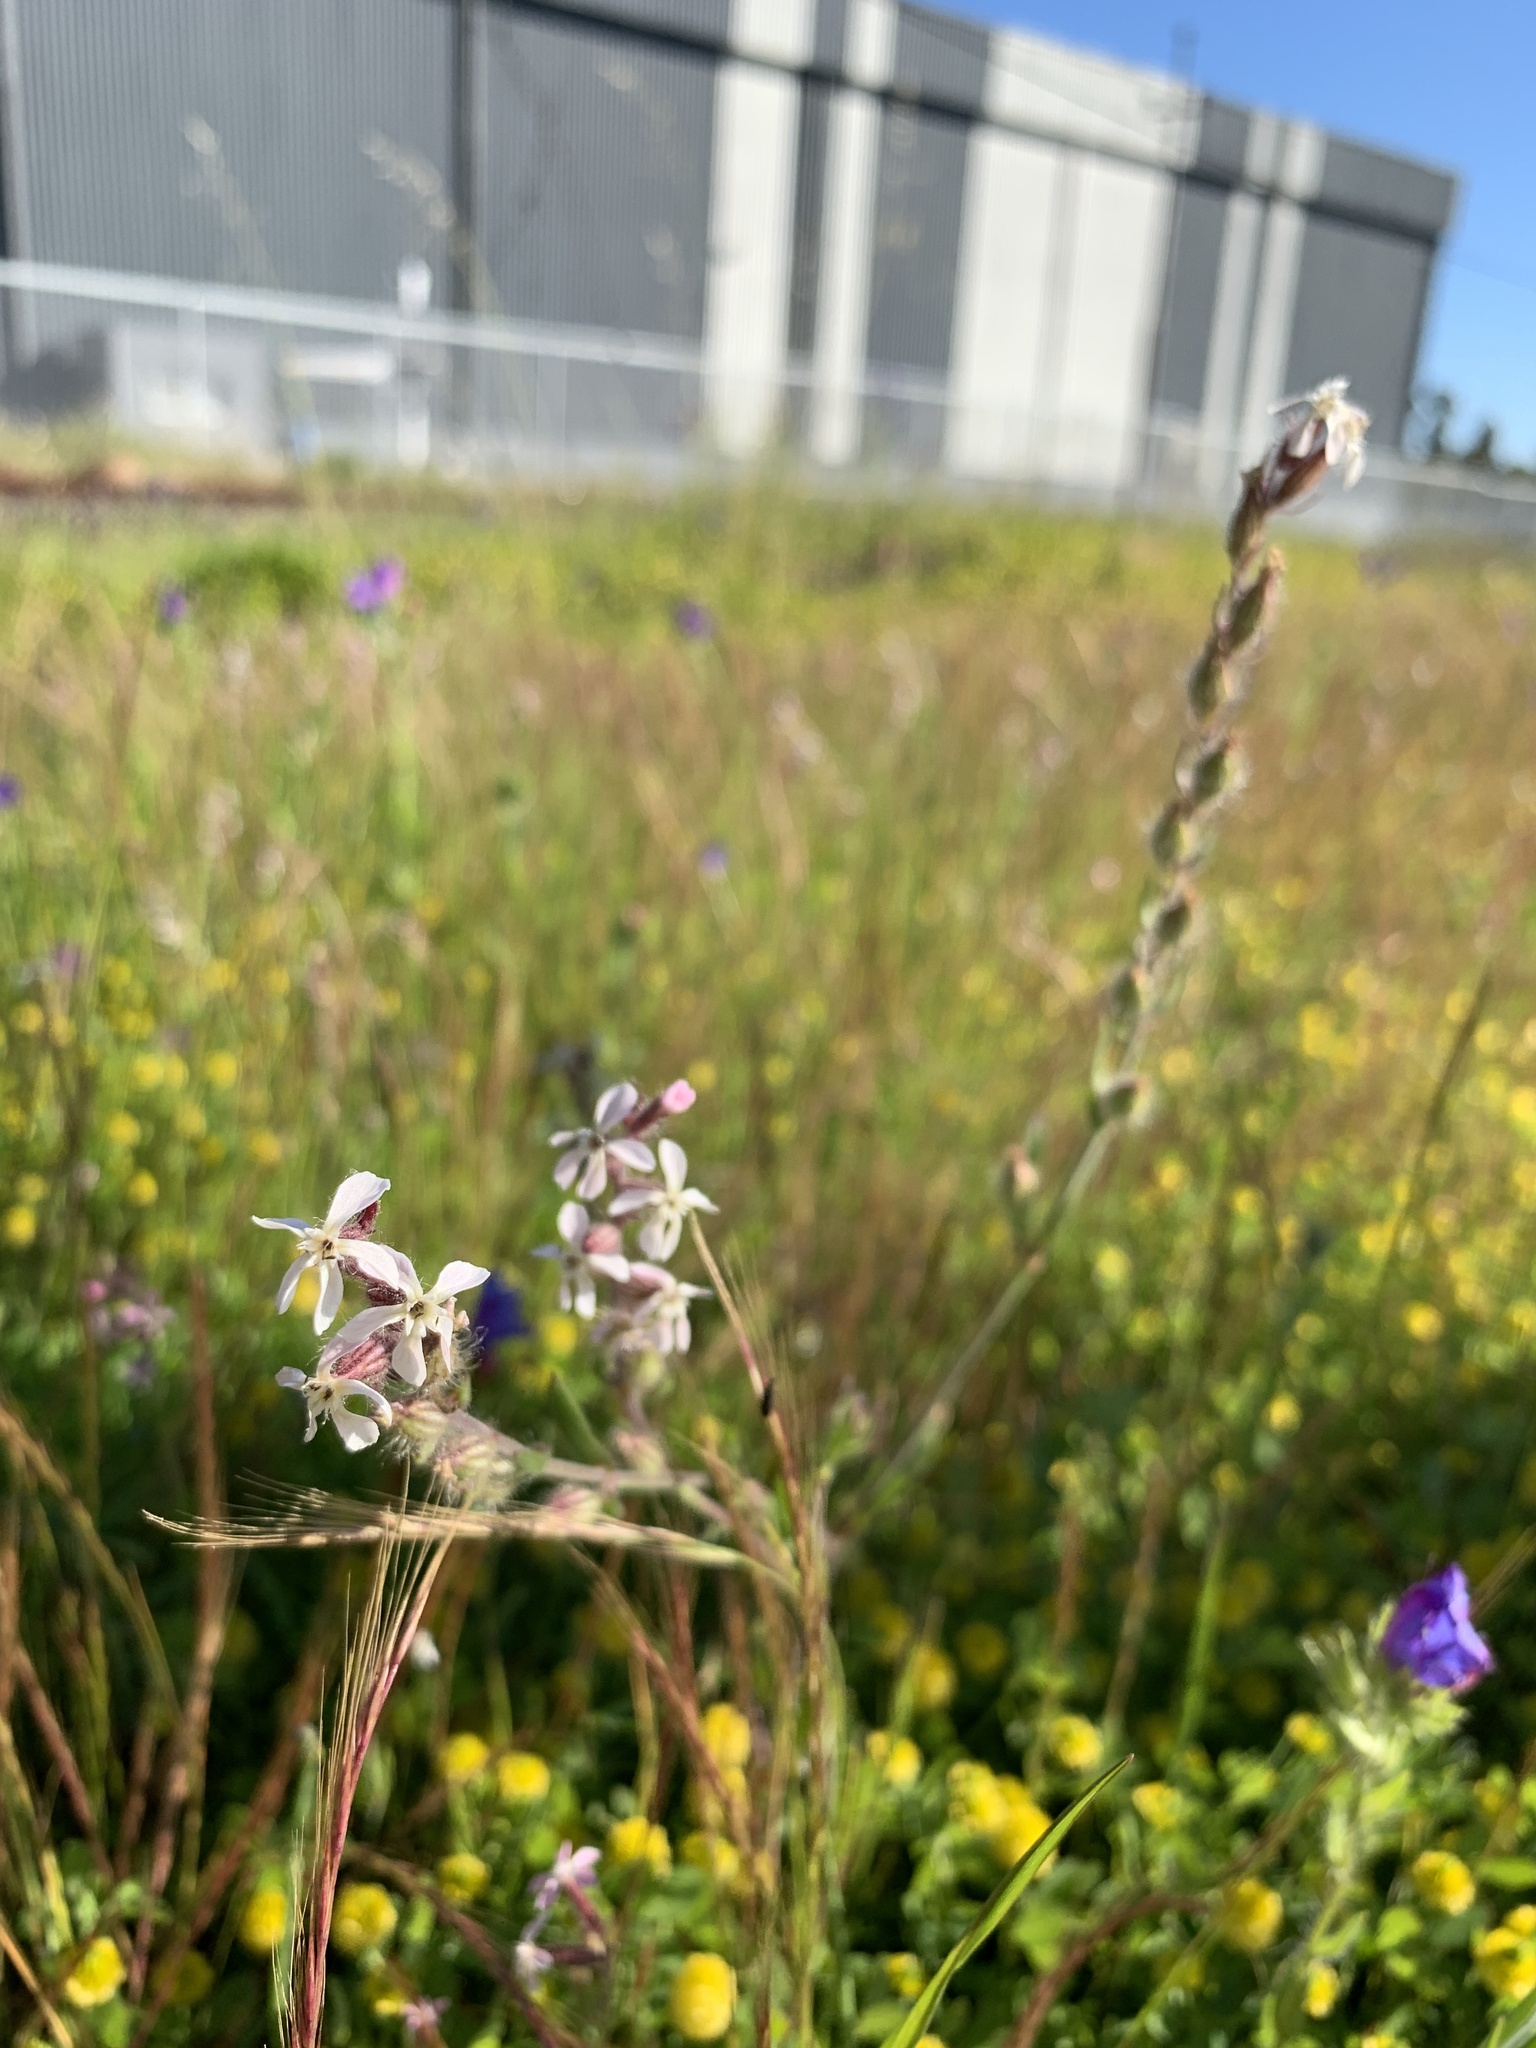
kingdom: Plantae
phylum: Tracheophyta
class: Magnoliopsida
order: Caryophyllales
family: Caryophyllaceae
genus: Silene
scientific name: Silene gallica
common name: Small-flowered catchfly
